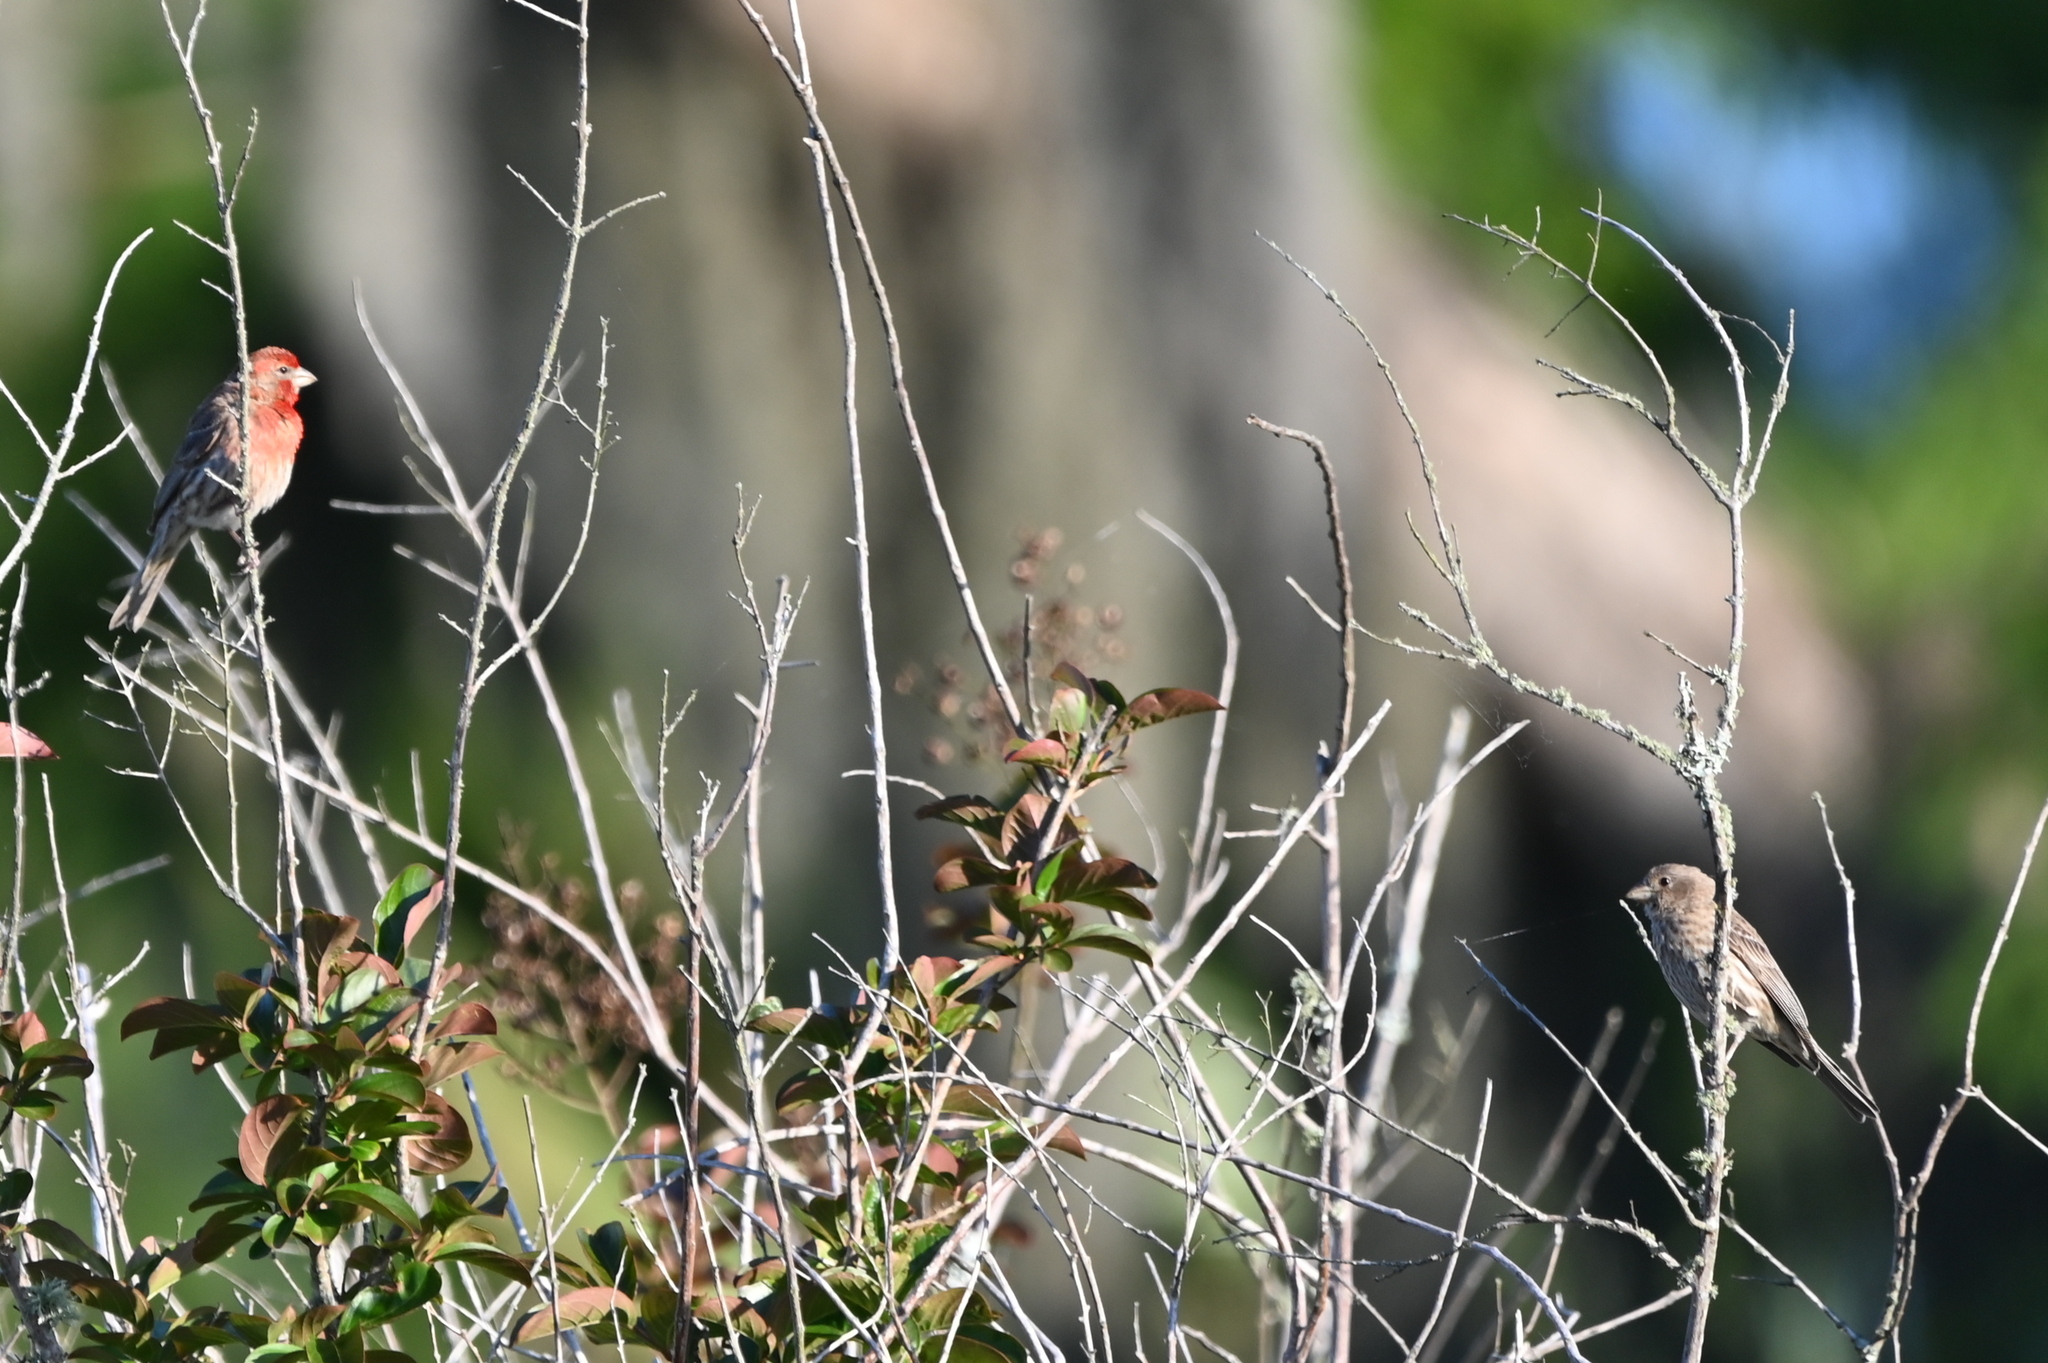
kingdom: Animalia
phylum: Chordata
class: Aves
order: Passeriformes
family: Fringillidae
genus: Haemorhous
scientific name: Haemorhous mexicanus
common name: House finch
